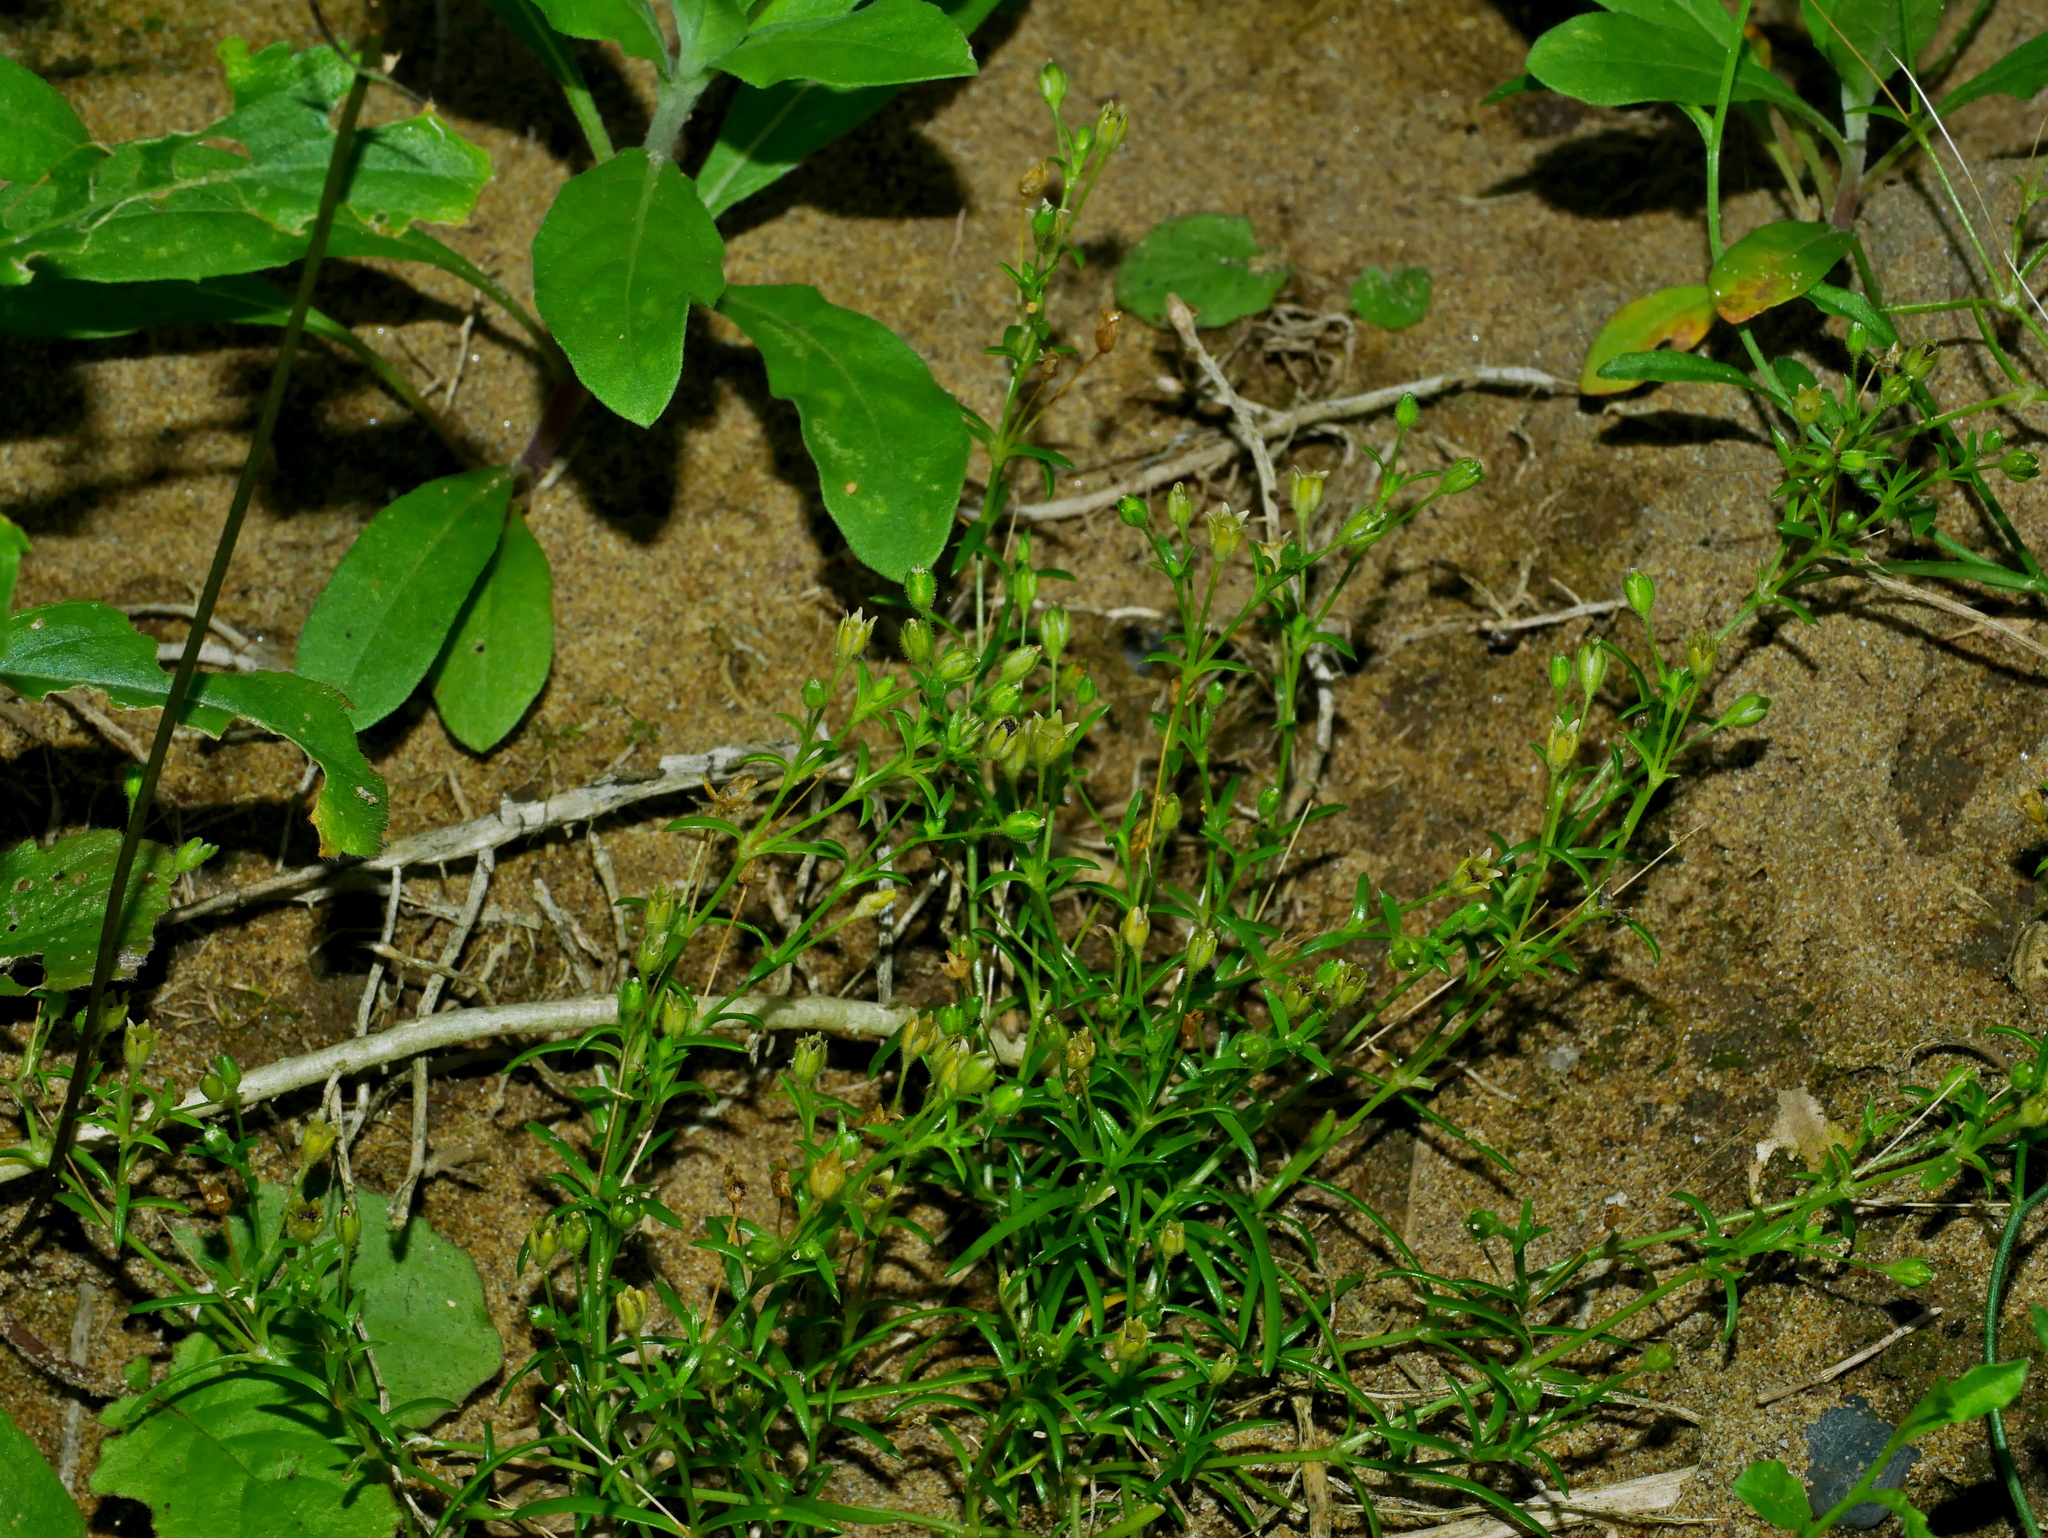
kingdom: Plantae
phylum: Tracheophyta
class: Magnoliopsida
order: Caryophyllales
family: Caryophyllaceae
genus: Sagina
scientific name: Sagina japonica
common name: Japanese pearlwort
